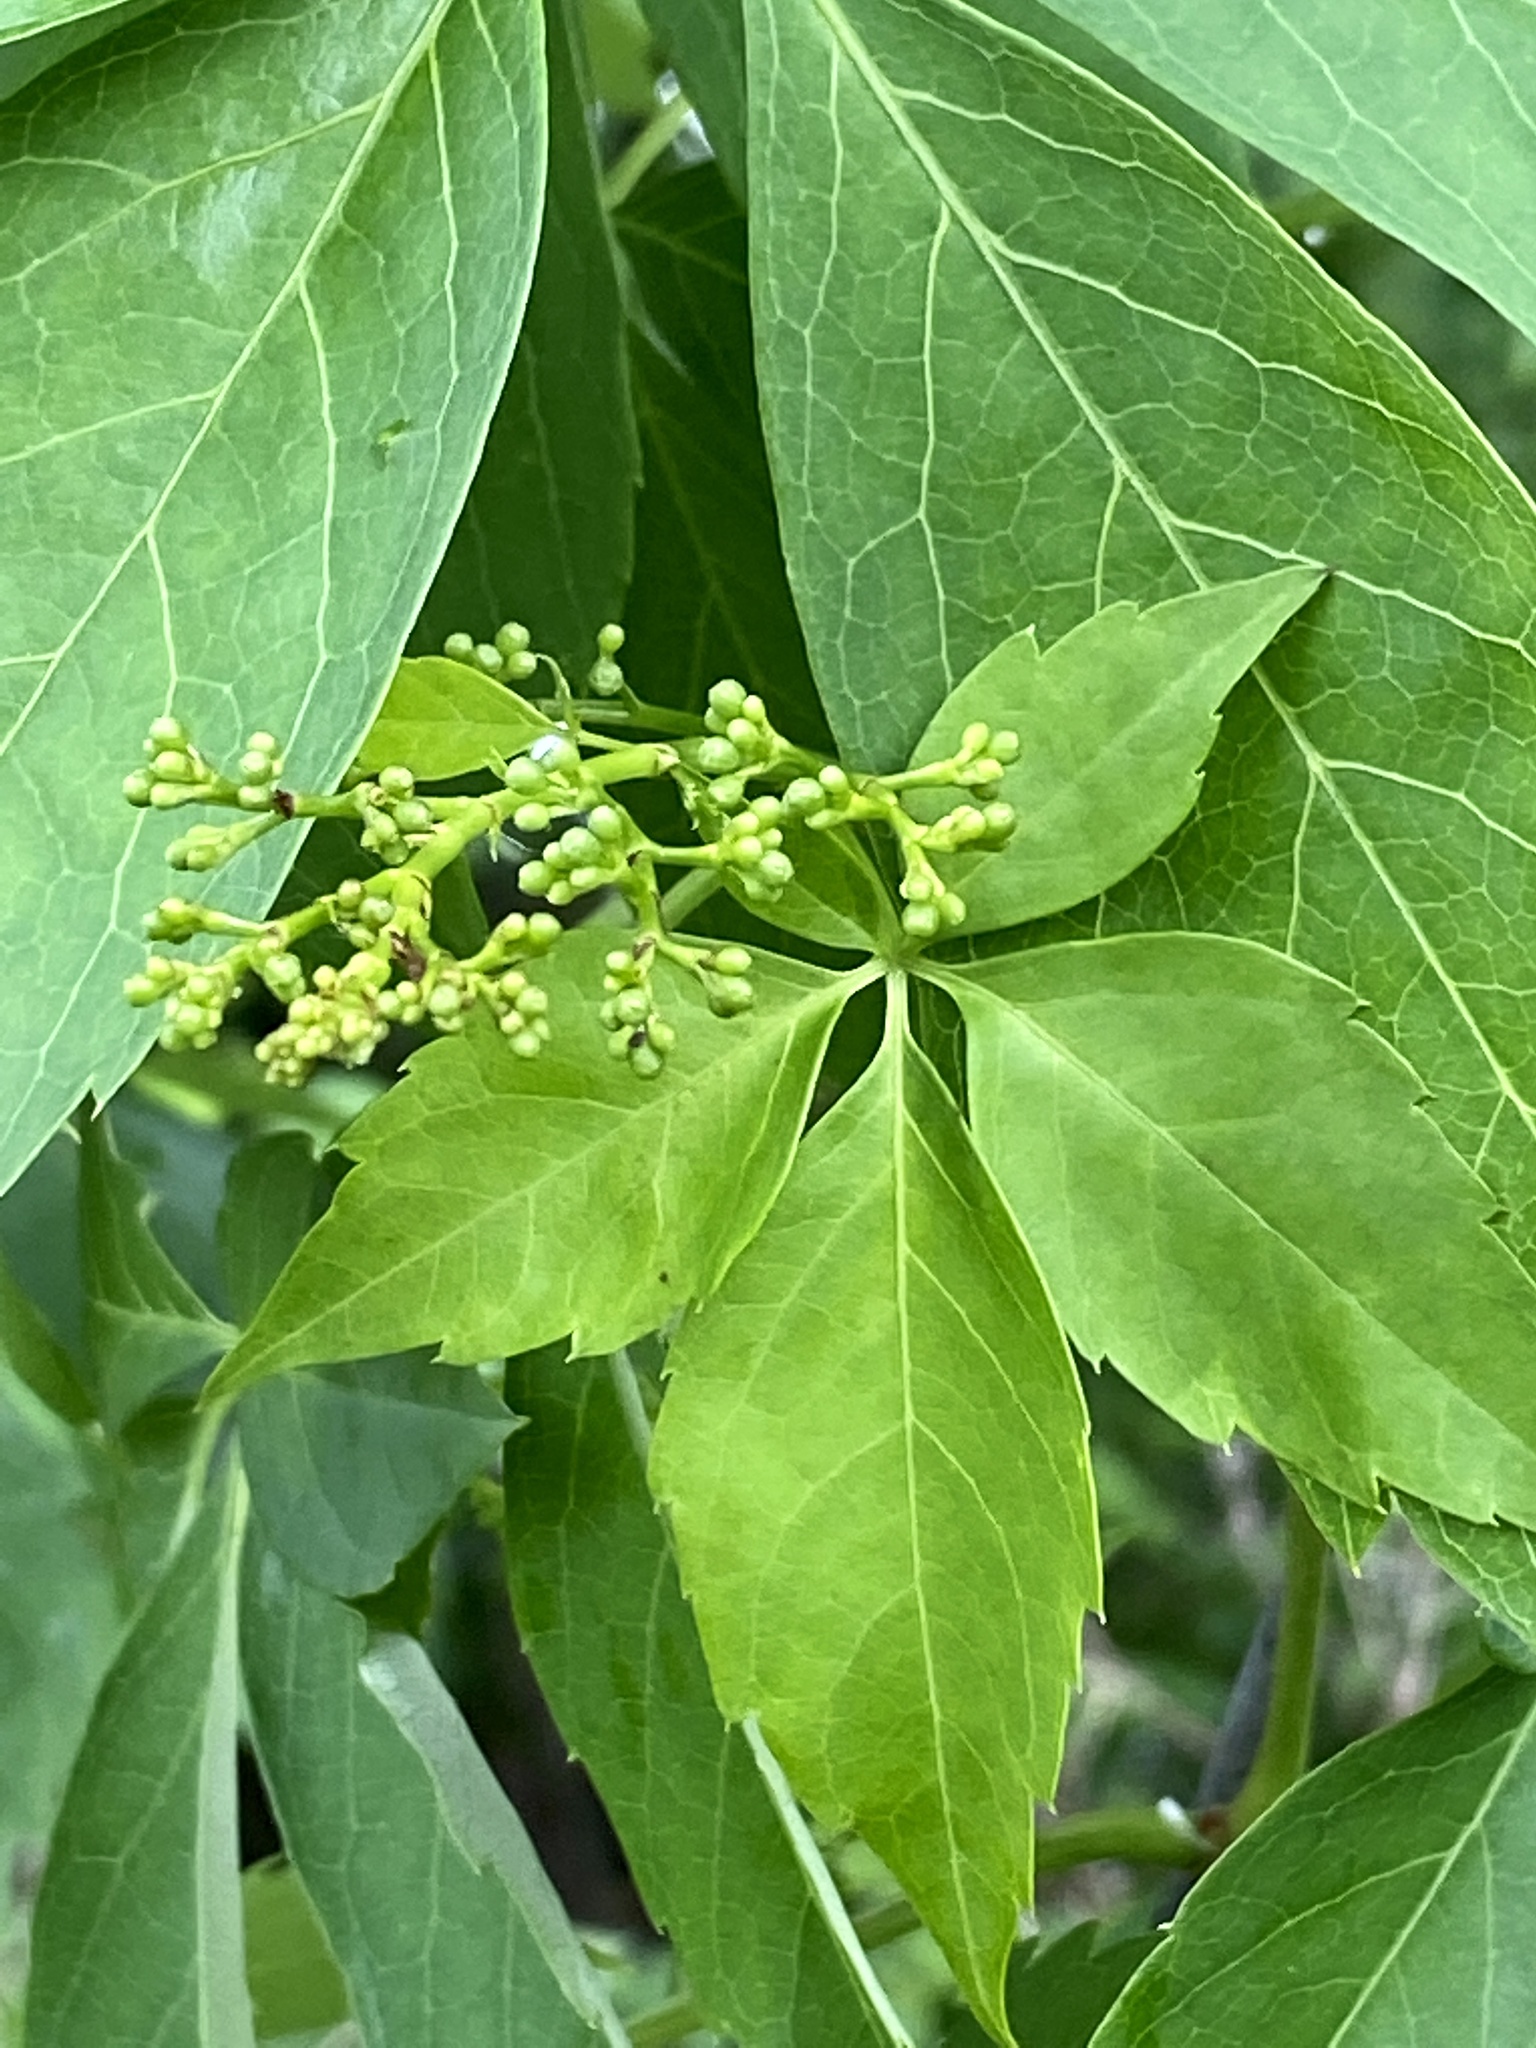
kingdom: Plantae
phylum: Tracheophyta
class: Magnoliopsida
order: Vitales
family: Vitaceae
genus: Parthenocissus
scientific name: Parthenocissus quinquefolia
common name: Virginia-creeper
